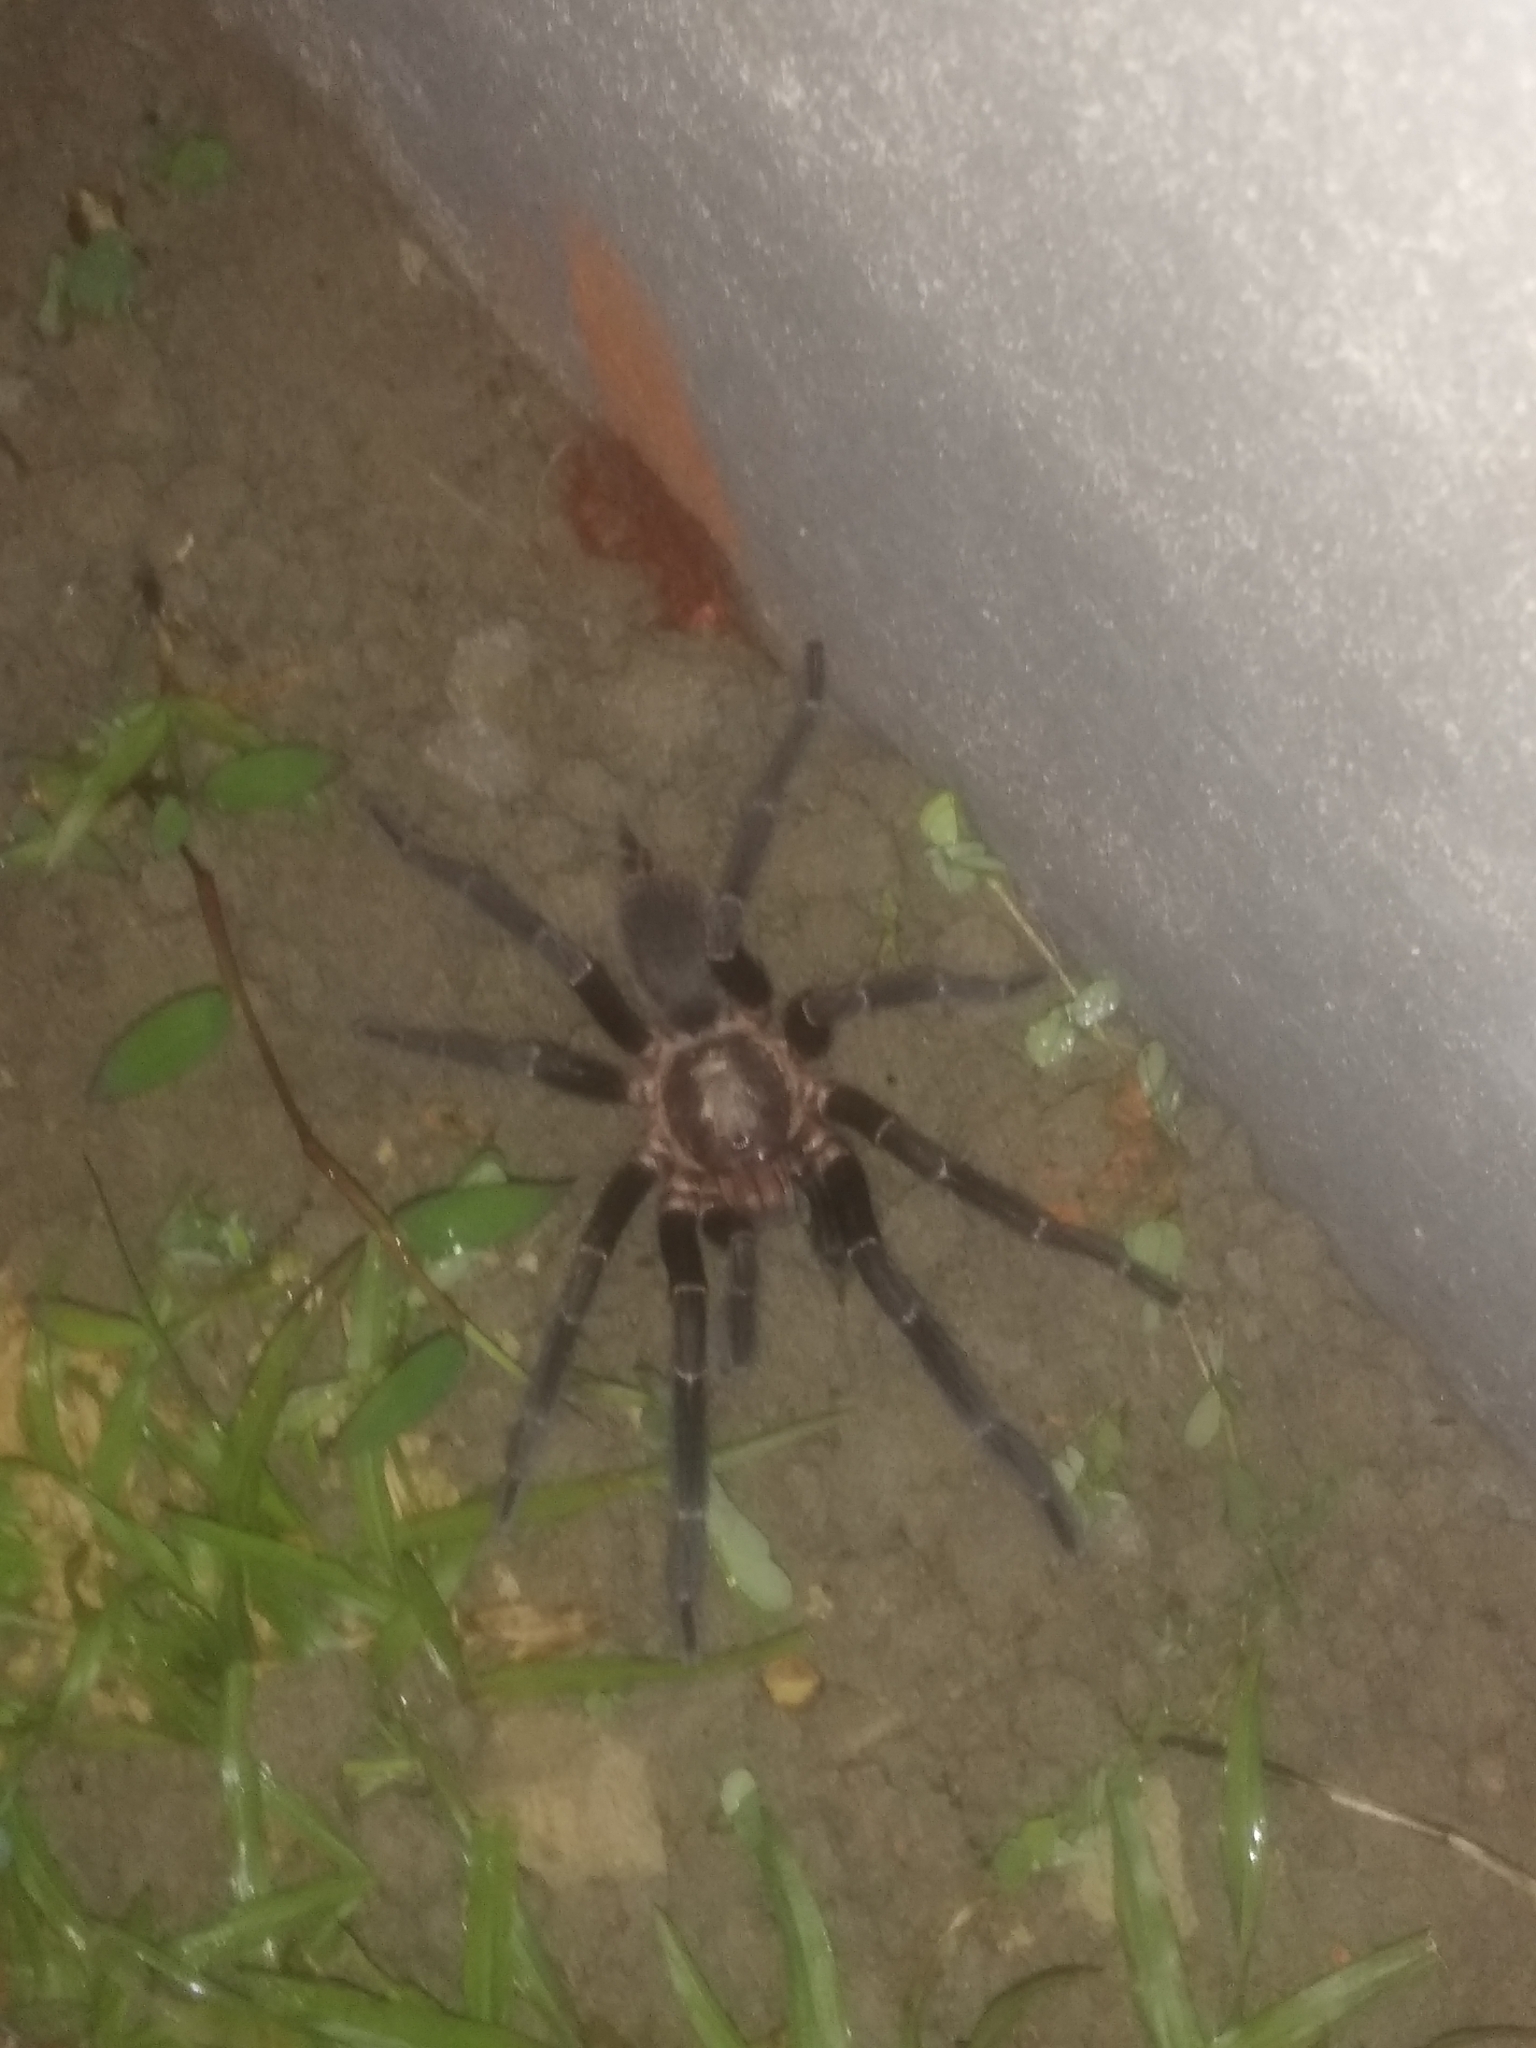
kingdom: Animalia
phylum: Arthropoda
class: Arachnida
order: Araneae
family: Theraphosidae
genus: Chilobrachys
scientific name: Chilobrachys assamensis
